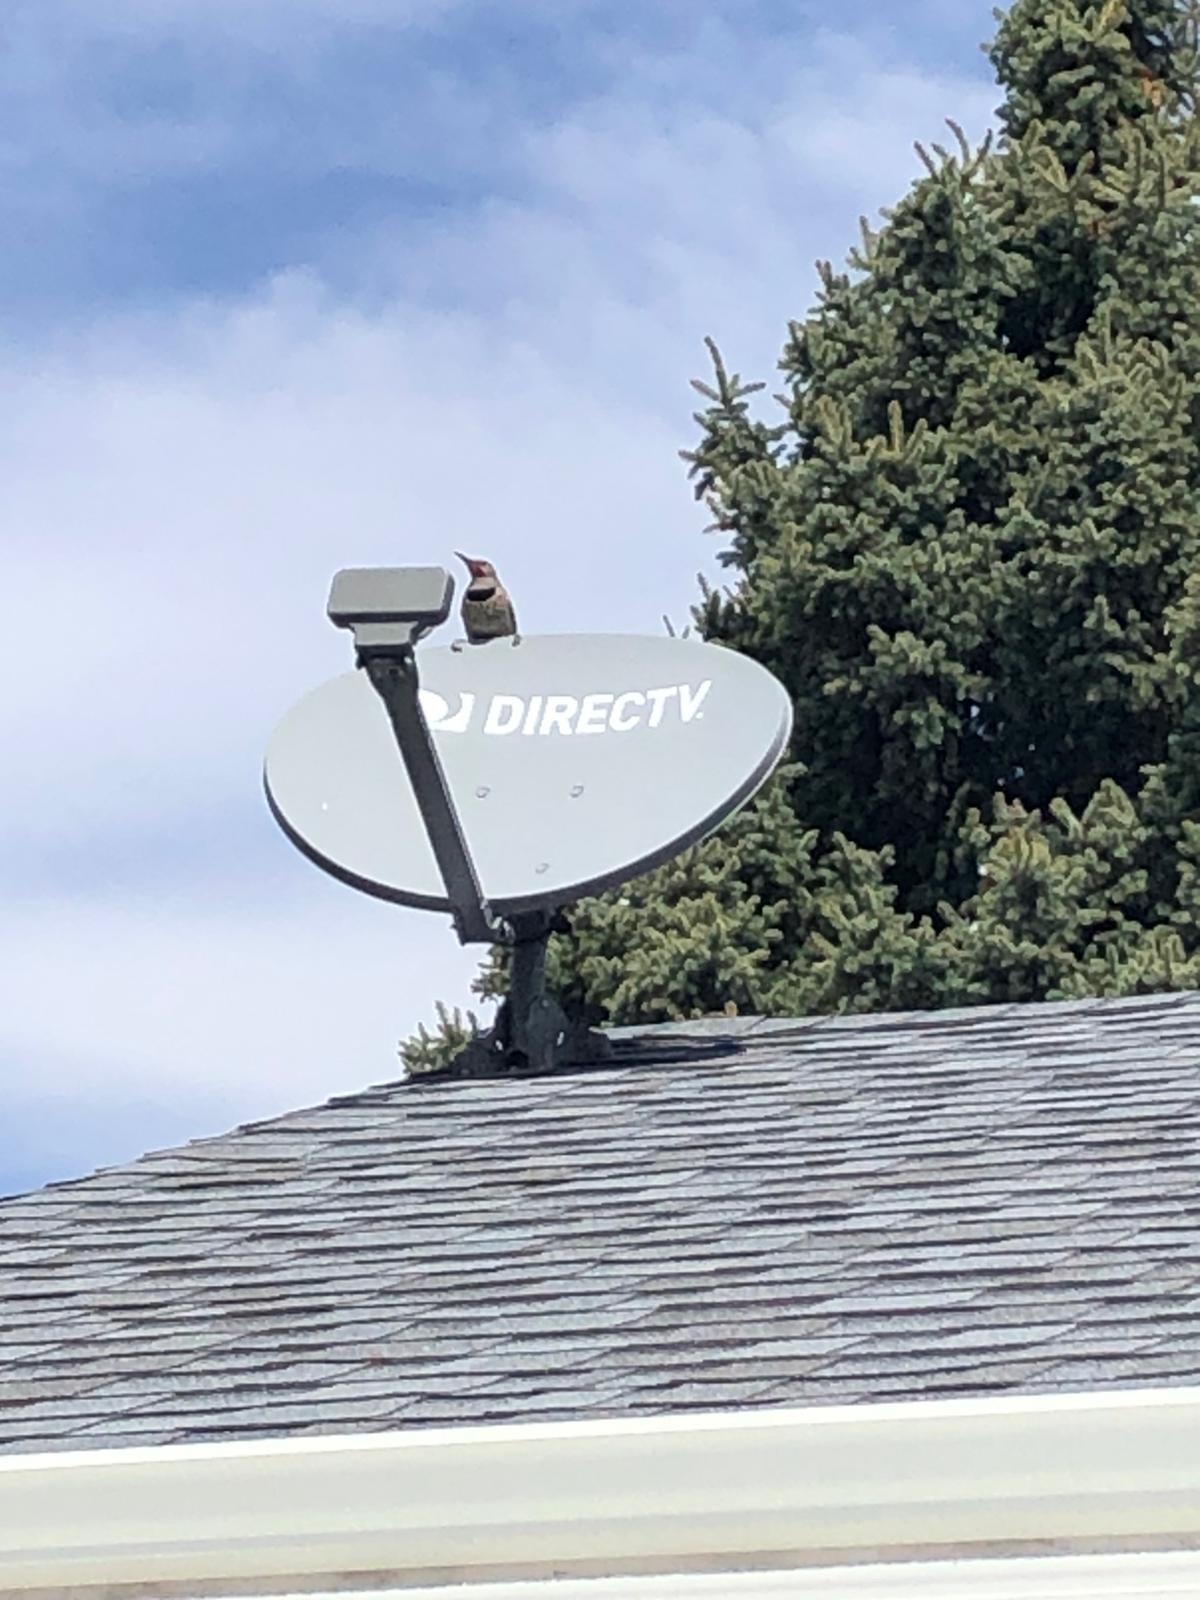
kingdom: Animalia
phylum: Chordata
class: Aves
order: Piciformes
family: Picidae
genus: Colaptes
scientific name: Colaptes auratus
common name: Northern flicker
